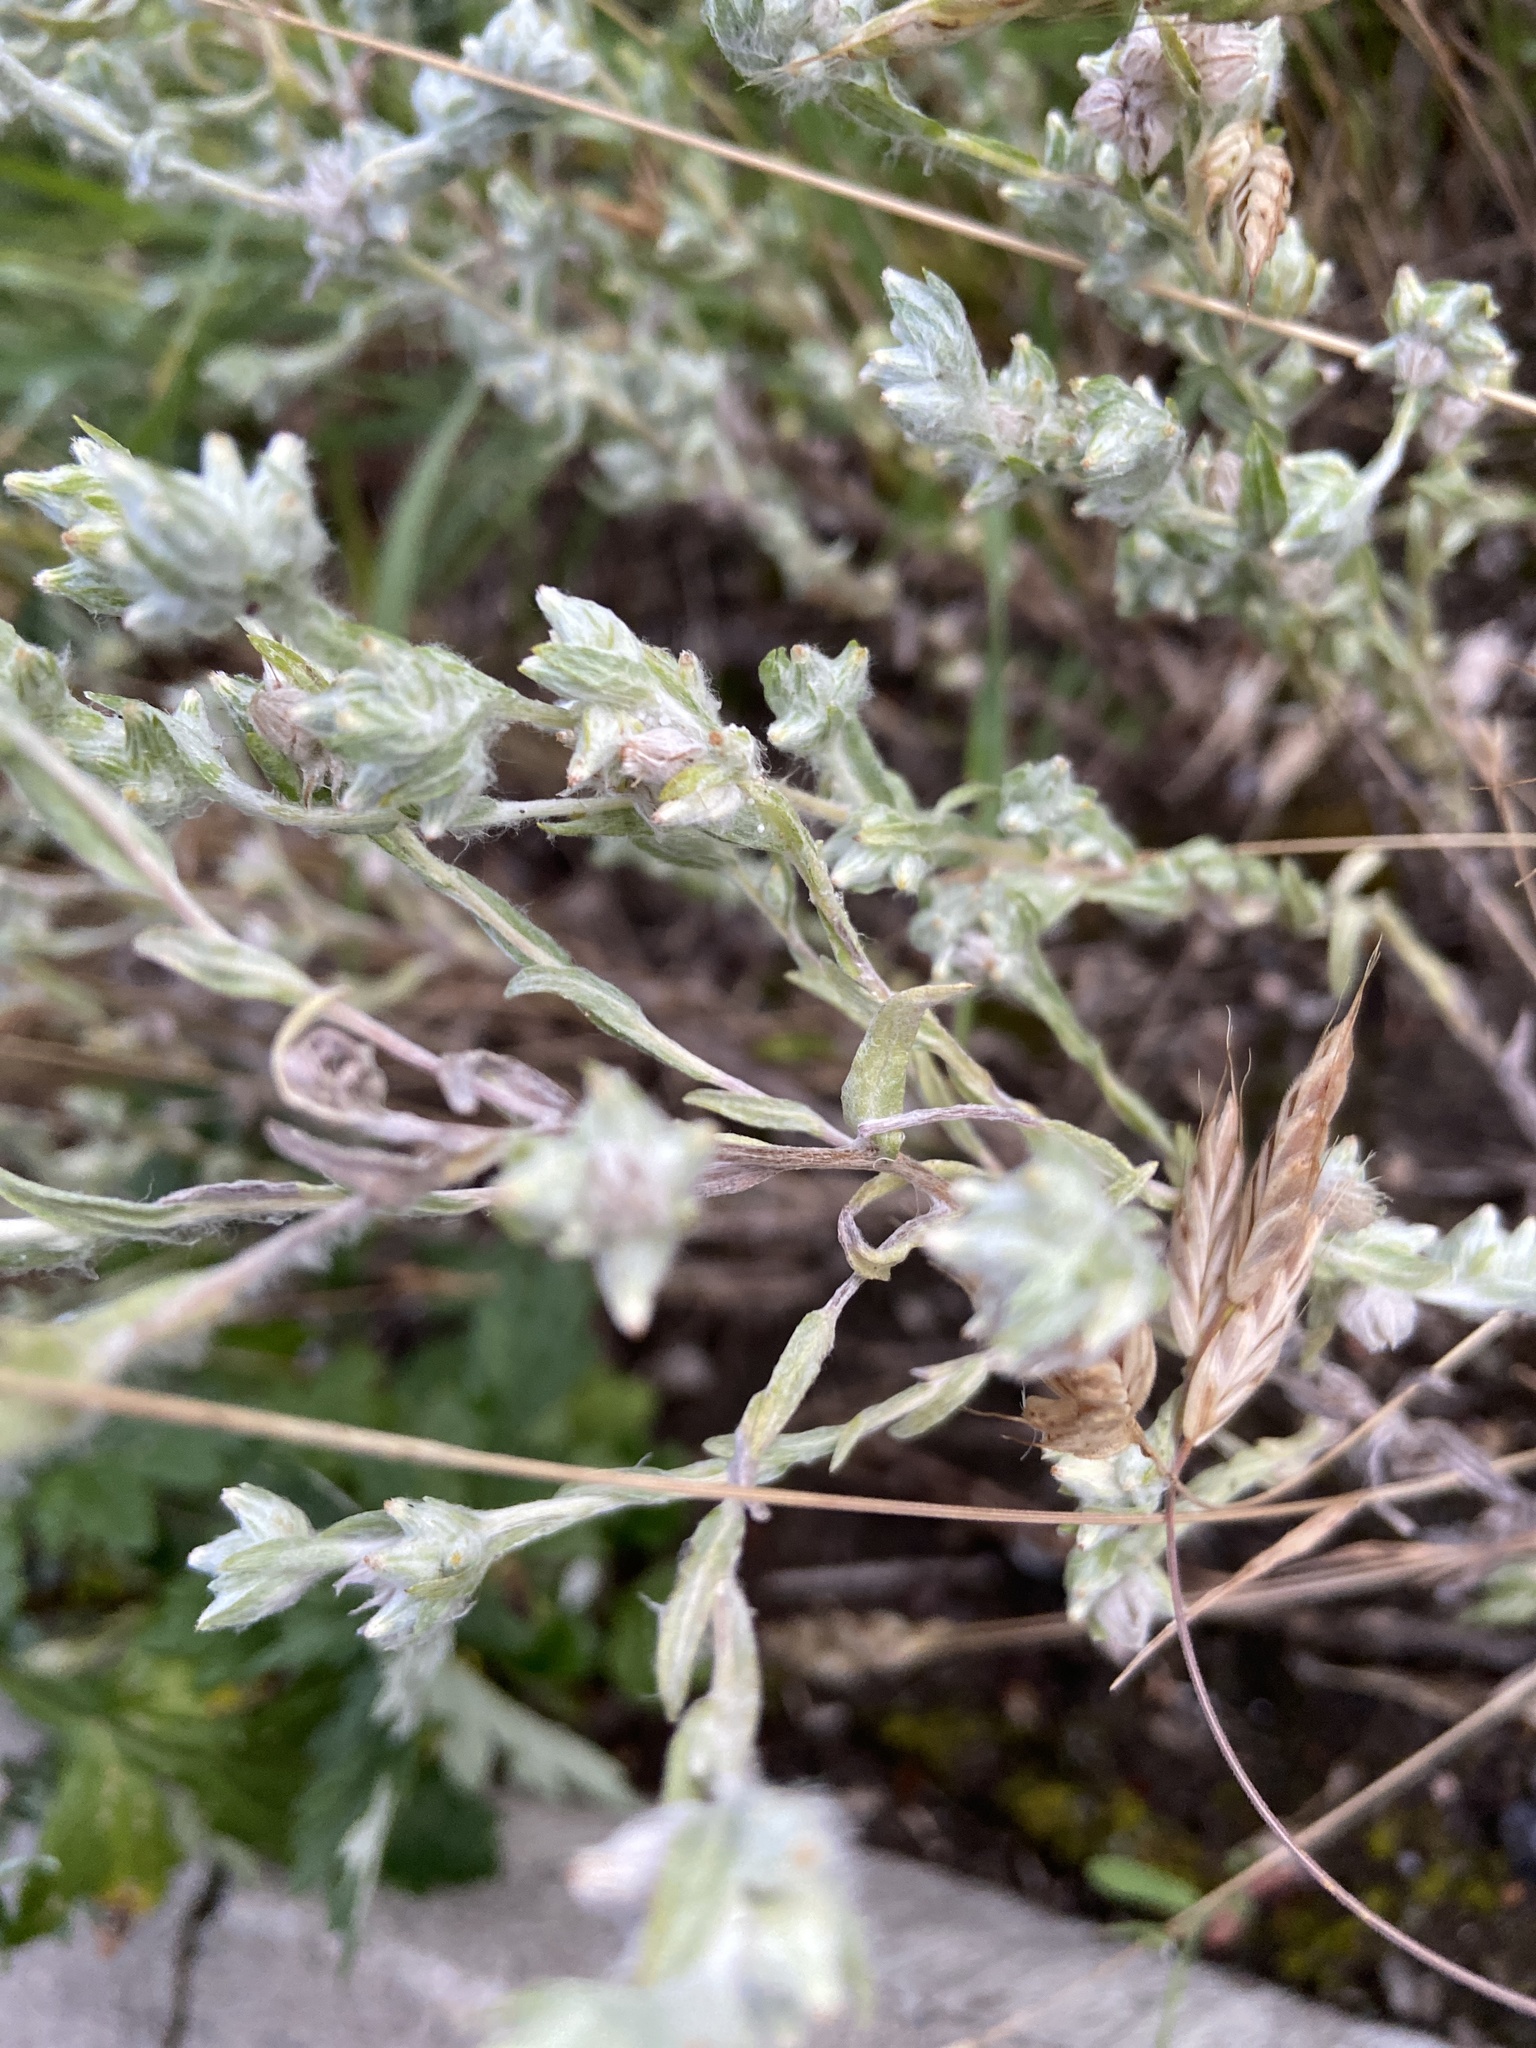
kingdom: Plantae
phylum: Tracheophyta
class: Magnoliopsida
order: Asterales
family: Asteraceae
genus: Filago
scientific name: Filago arvensis
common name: Field cudweed
